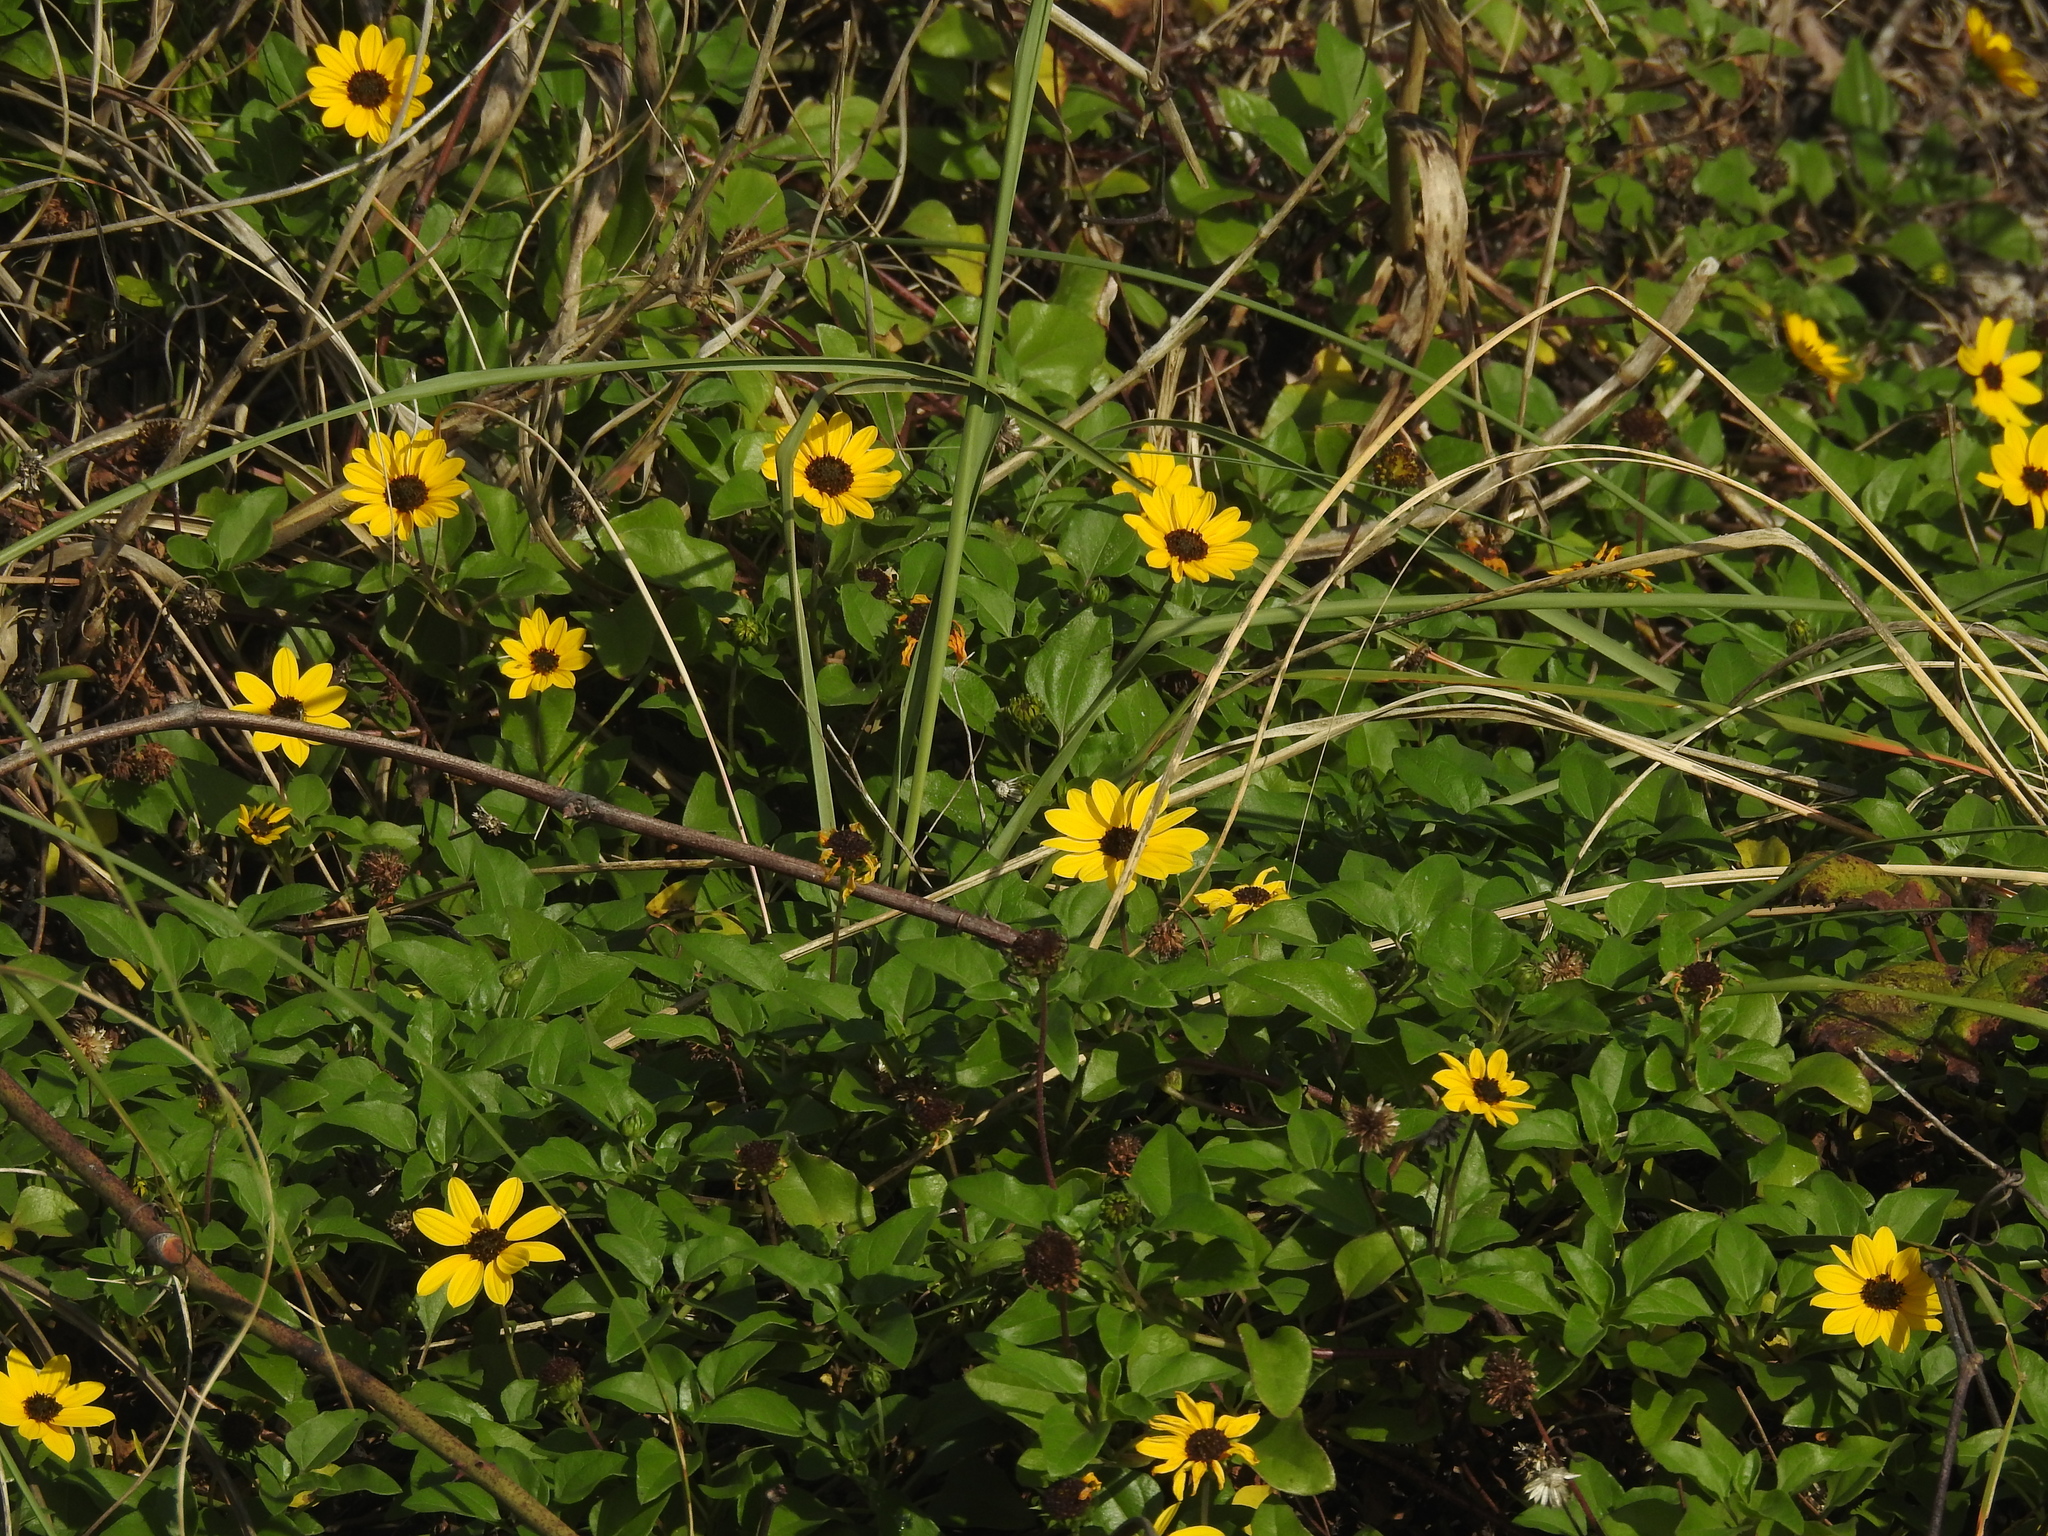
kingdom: Plantae
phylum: Tracheophyta
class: Magnoliopsida
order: Asterales
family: Asteraceae
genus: Helianthus
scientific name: Helianthus debilis
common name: Weak sunflower
